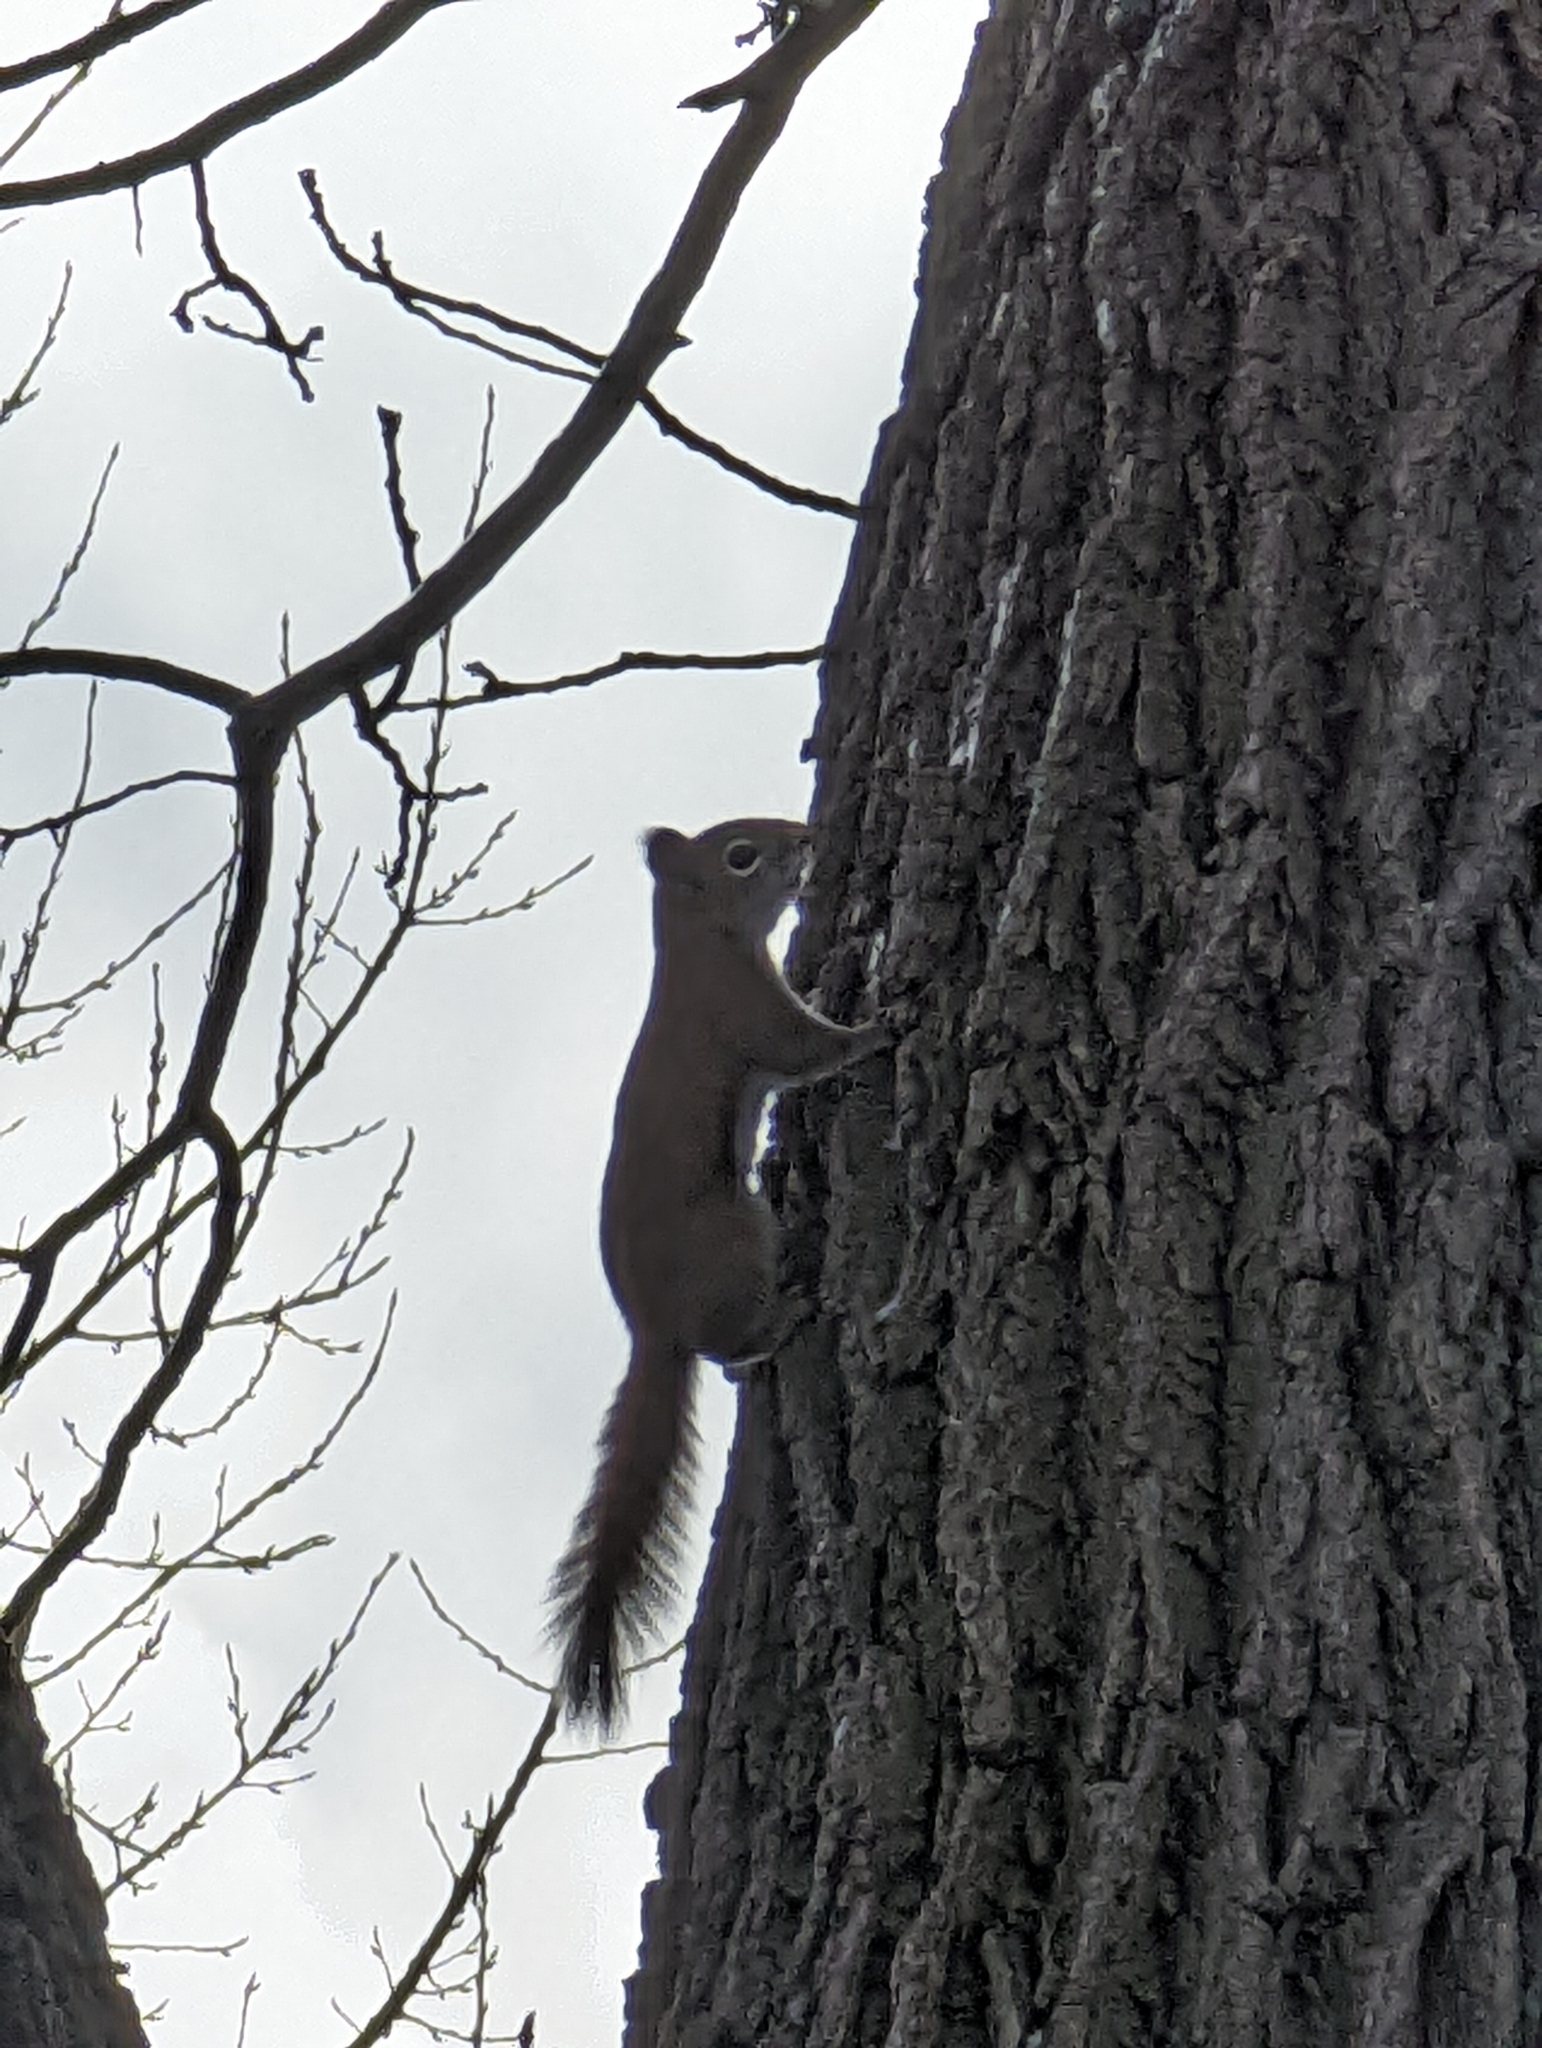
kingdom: Animalia
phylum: Chordata
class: Mammalia
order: Rodentia
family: Sciuridae
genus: Tamiasciurus
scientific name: Tamiasciurus hudsonicus
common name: Red squirrel
